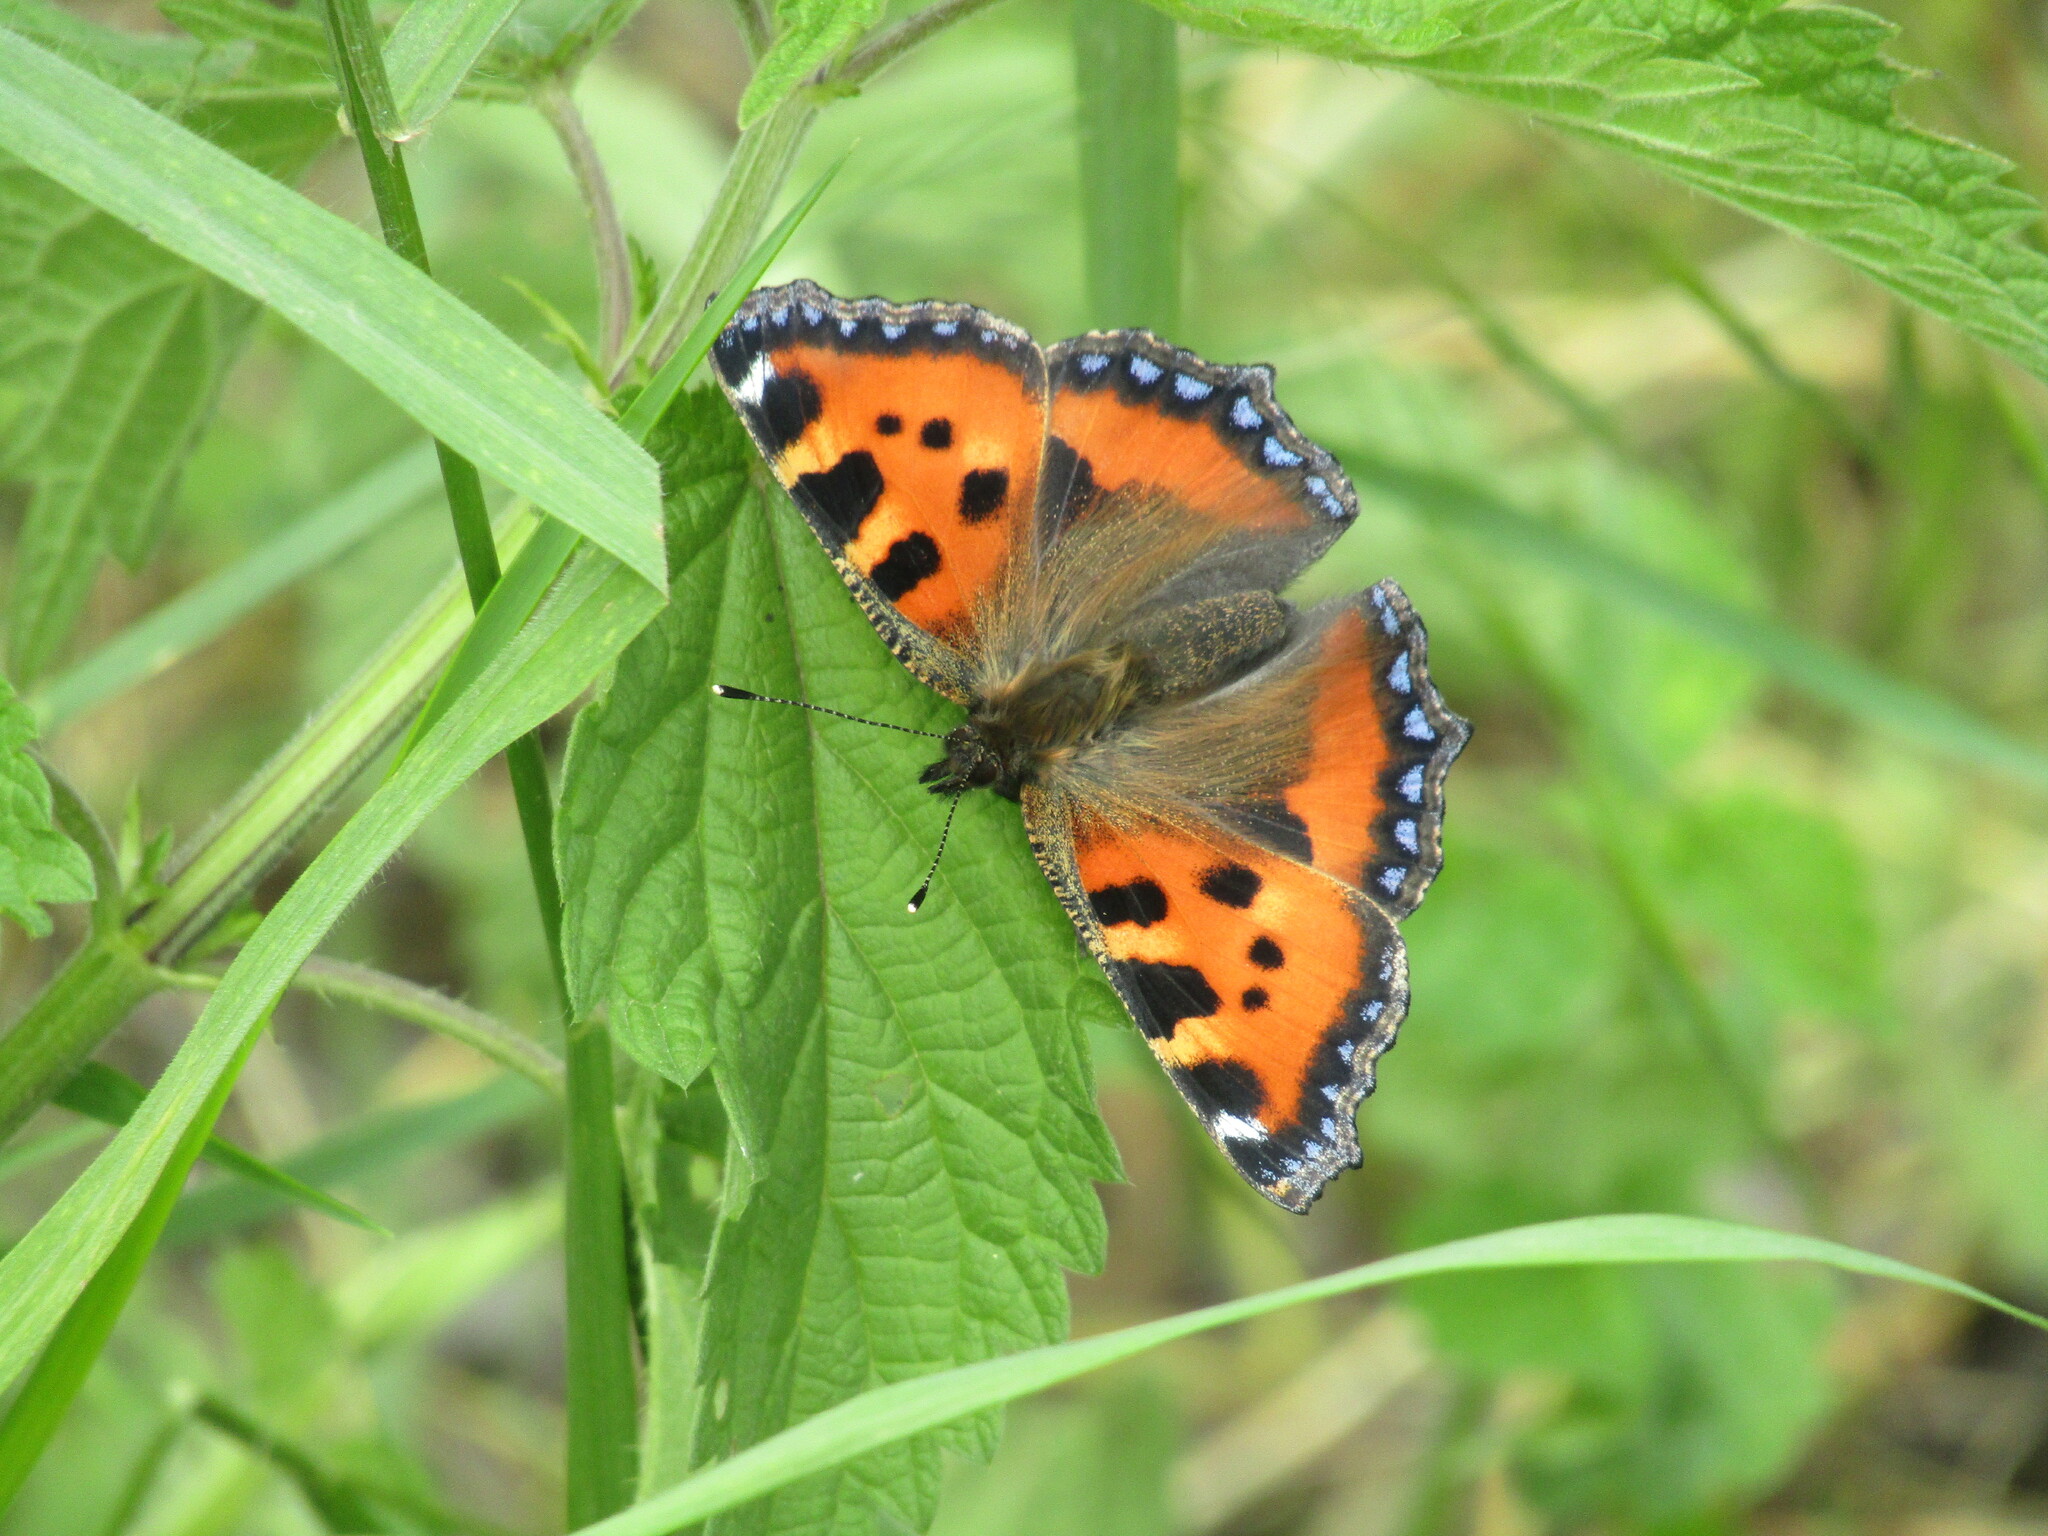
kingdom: Animalia
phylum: Arthropoda
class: Insecta
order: Lepidoptera
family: Nymphalidae
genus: Aglais
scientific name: Aglais urticae
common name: Small tortoiseshell
